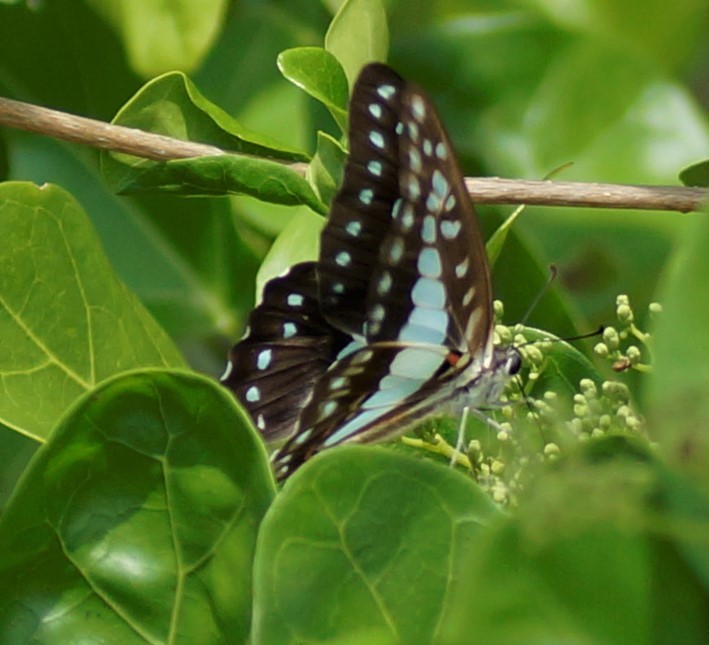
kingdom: Animalia
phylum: Arthropoda
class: Insecta
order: Lepidoptera
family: Papilionidae
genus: Graphium
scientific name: Graphium eurypylus
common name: Great jay
